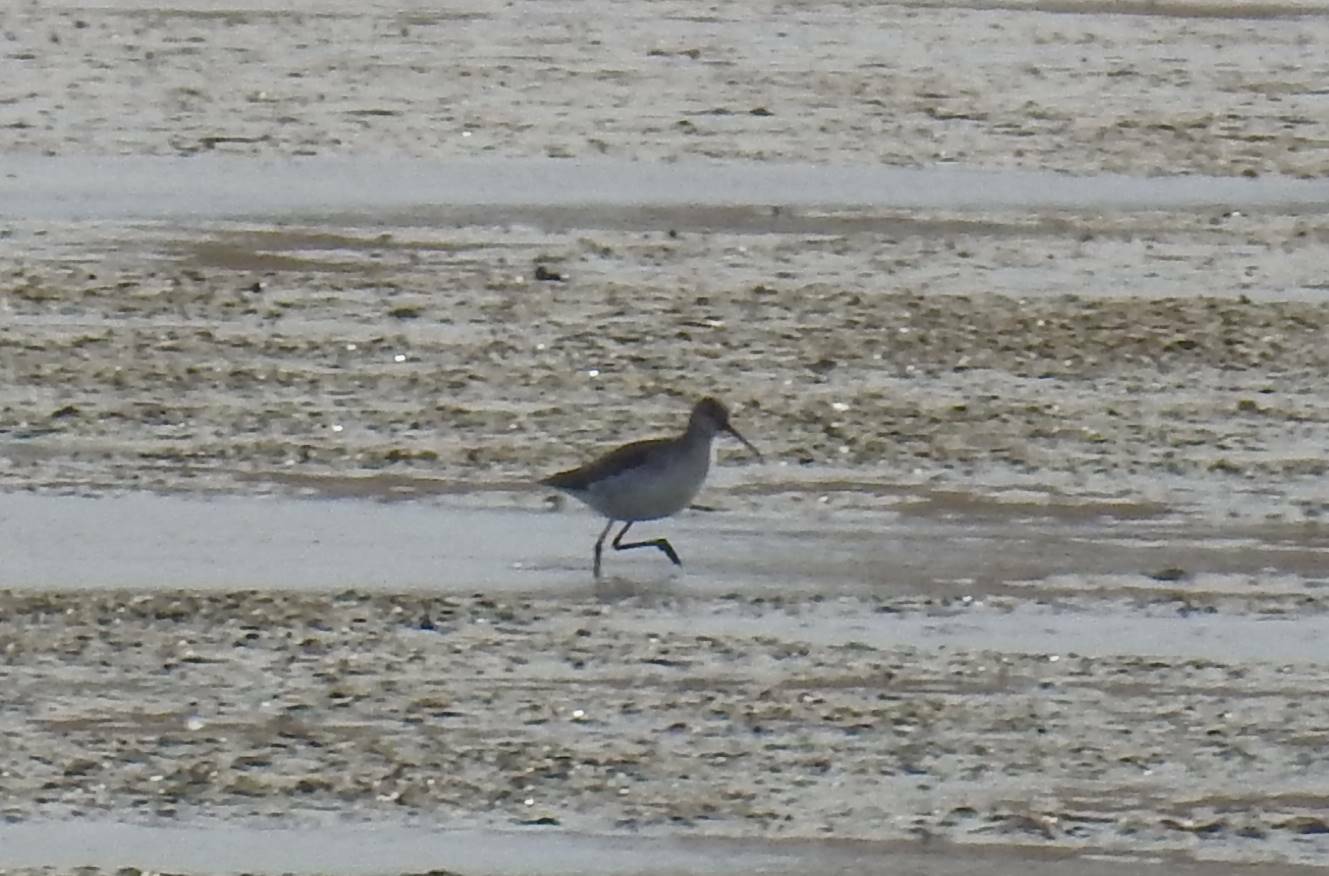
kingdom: Animalia
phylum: Chordata
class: Aves
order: Charadriiformes
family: Scolopacidae
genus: Tringa
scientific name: Tringa erythropus
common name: Spotted redshank
